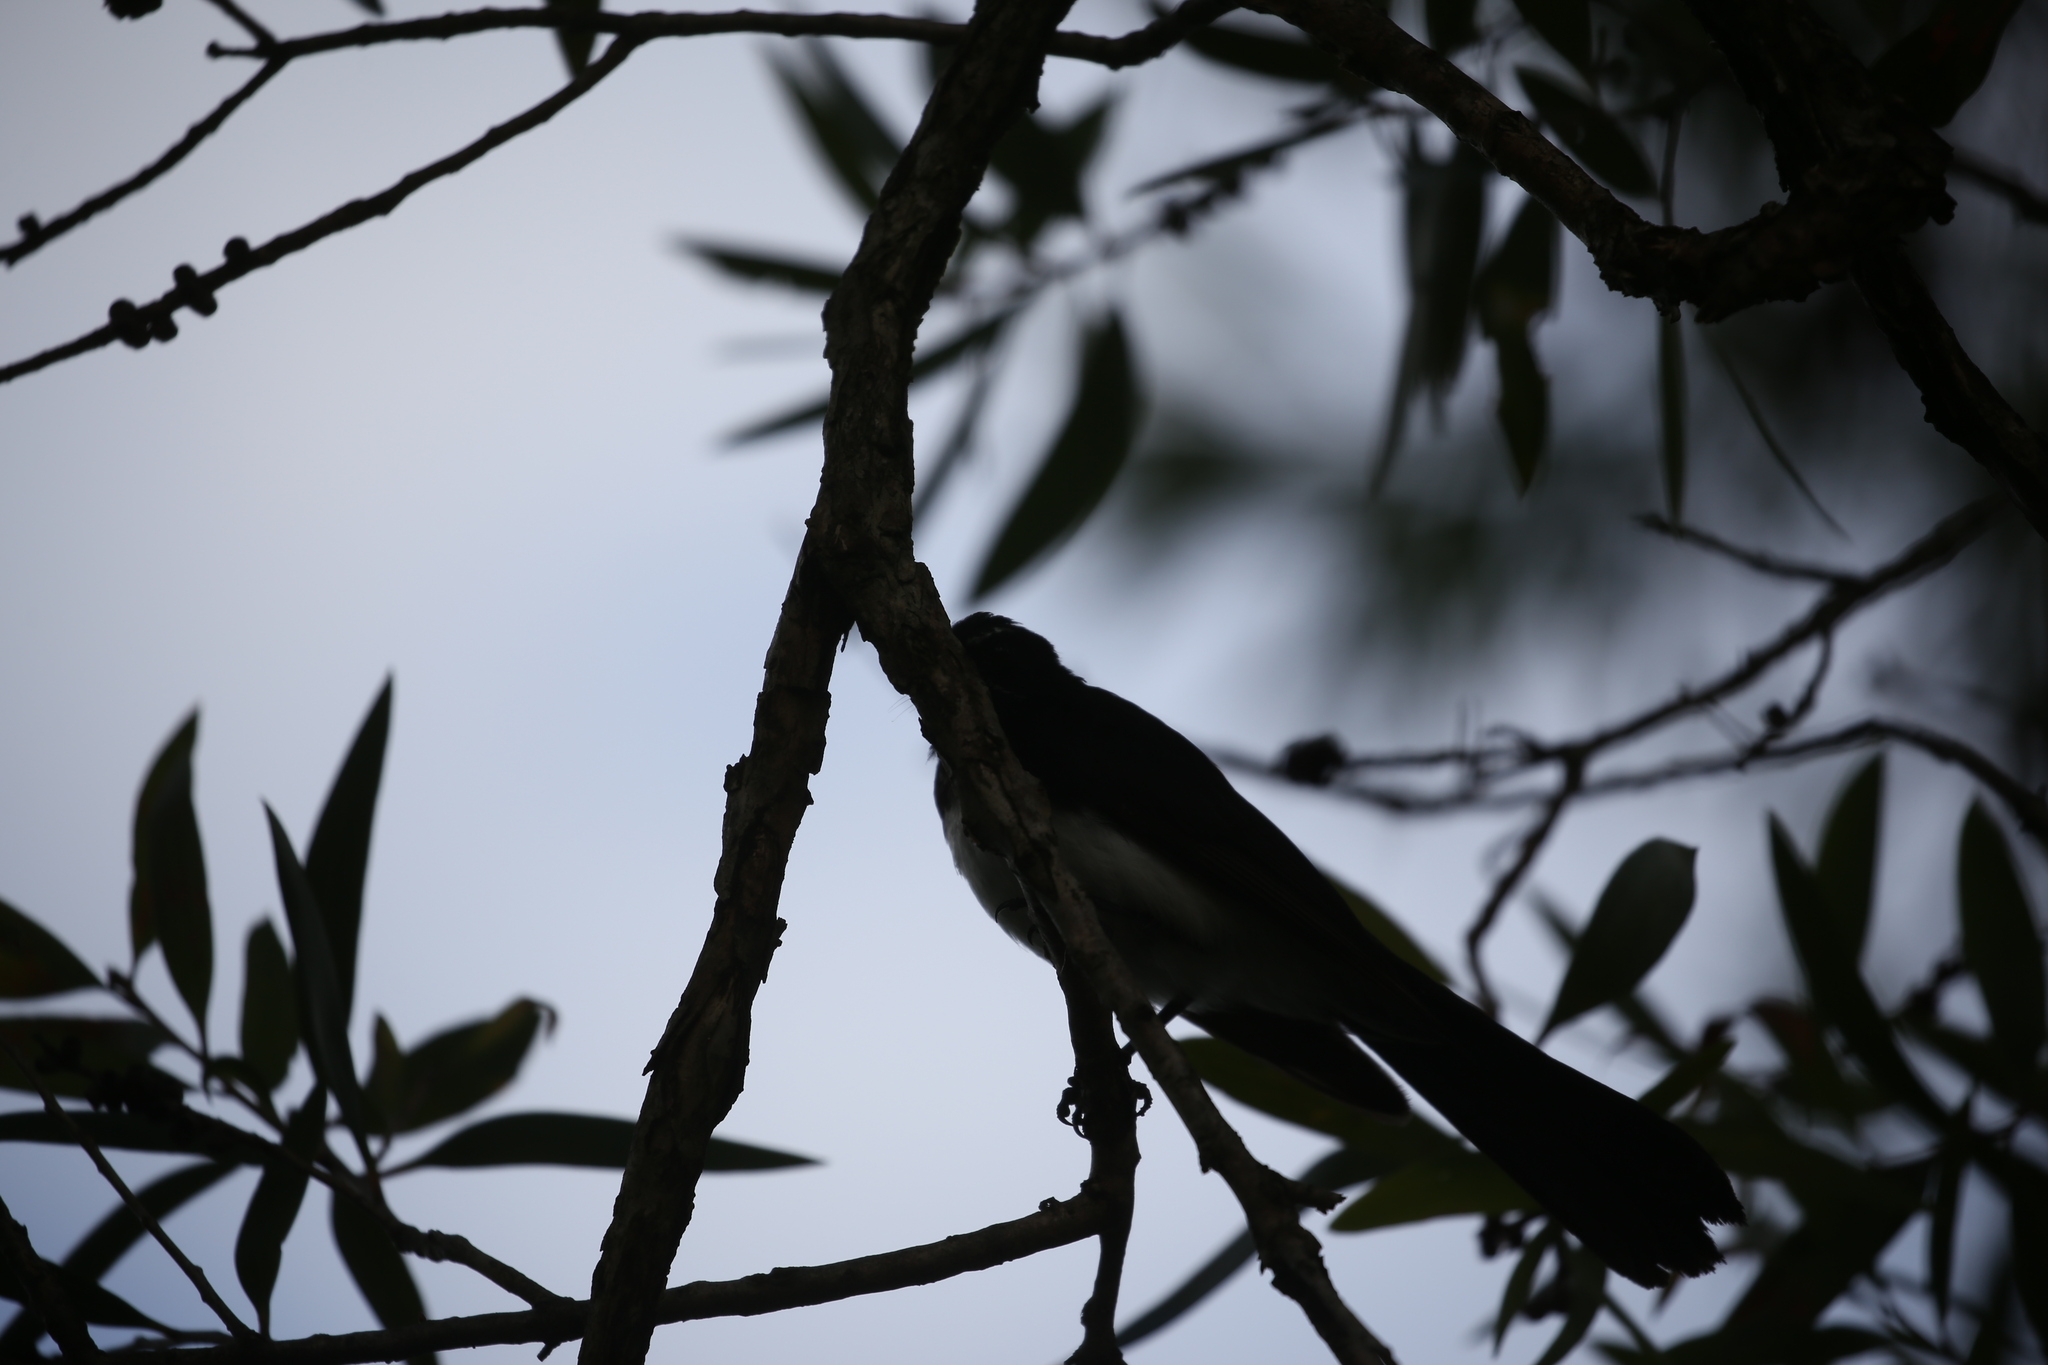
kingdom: Animalia
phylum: Chordata
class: Aves
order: Passeriformes
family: Rhipiduridae
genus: Rhipidura
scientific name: Rhipidura leucophrys
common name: Willie wagtail
